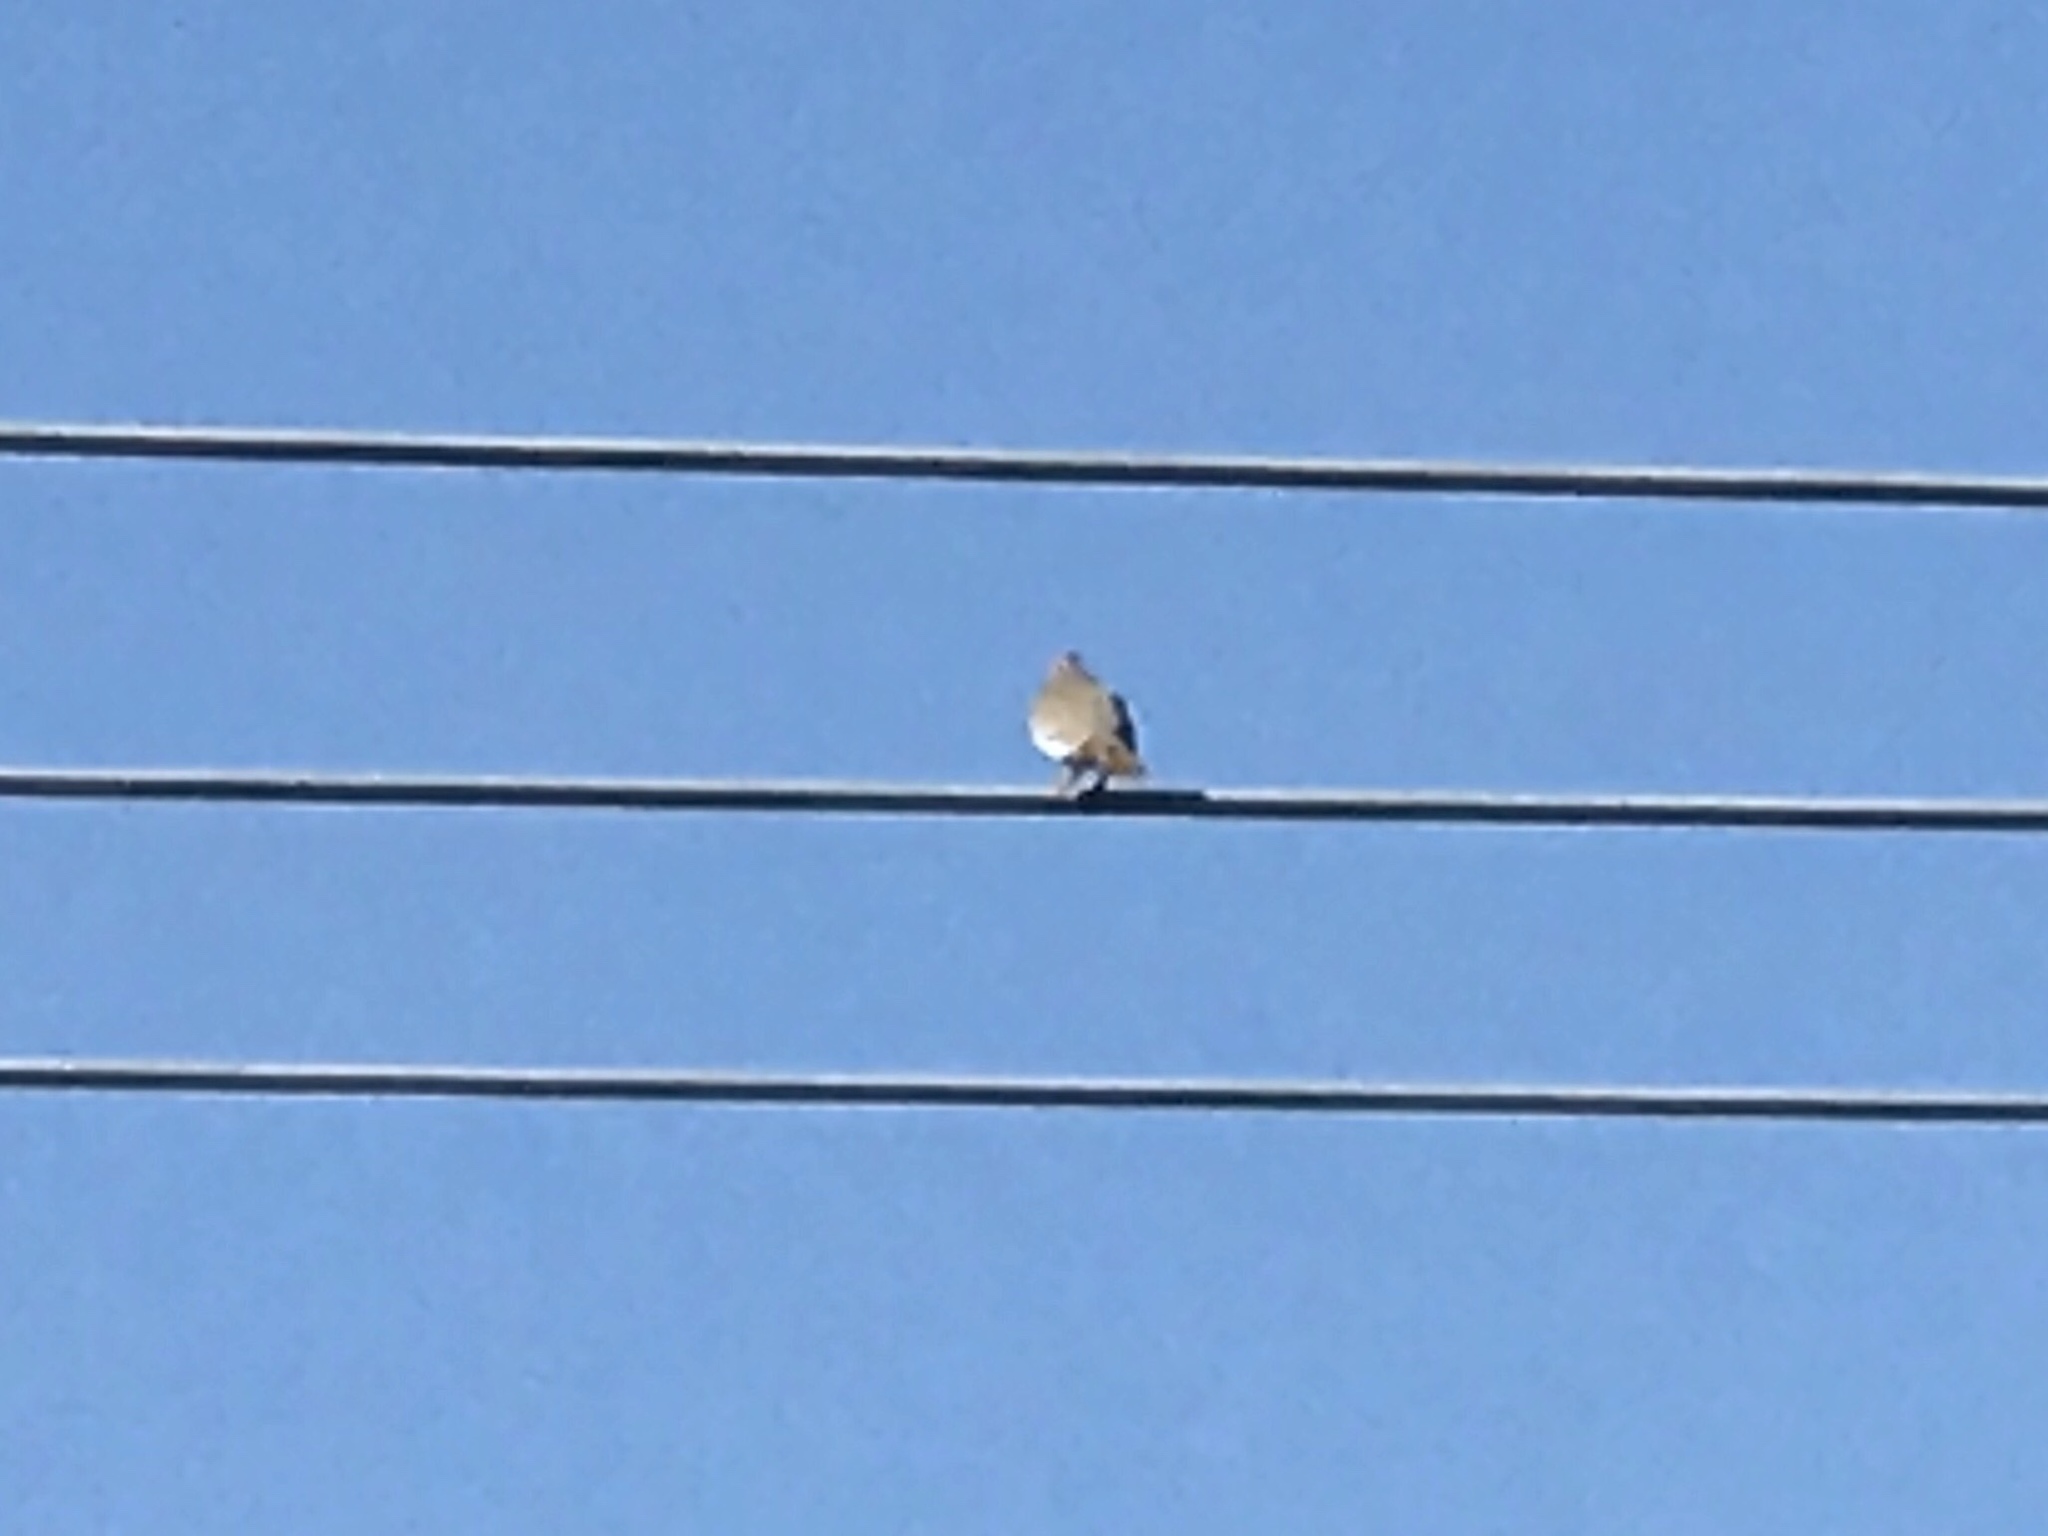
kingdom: Animalia
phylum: Chordata
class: Aves
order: Columbiformes
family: Columbidae
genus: Zenaida
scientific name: Zenaida asiatica
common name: White-winged dove
